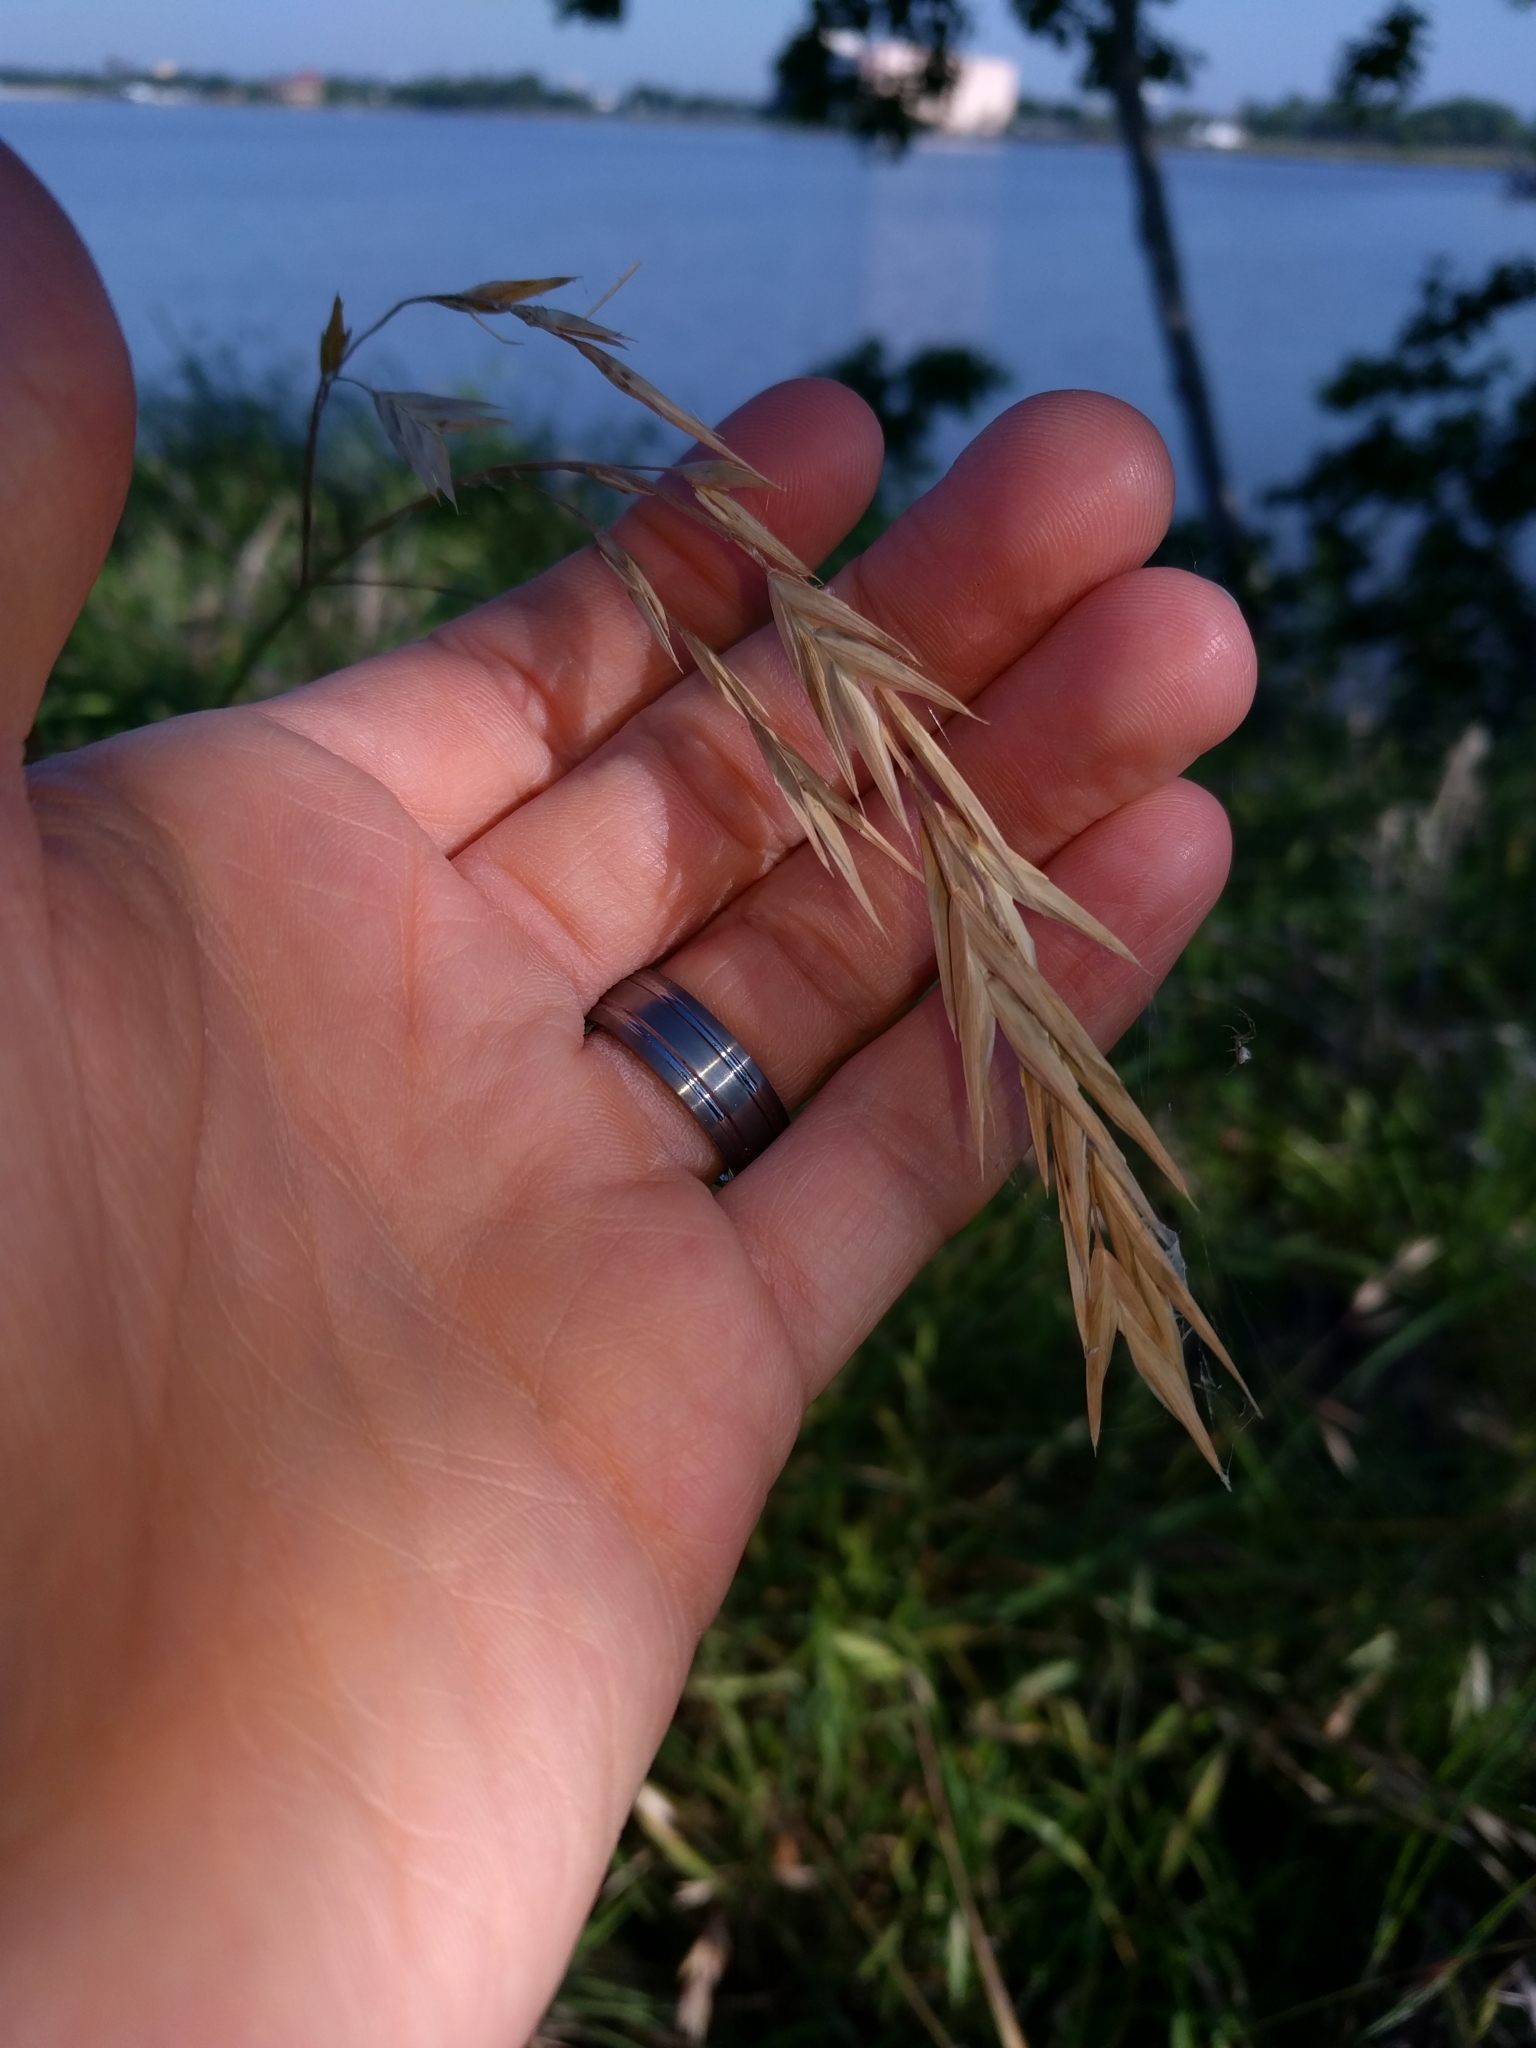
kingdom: Plantae
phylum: Tracheophyta
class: Liliopsida
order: Poales
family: Poaceae
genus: Chasmanthium
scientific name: Chasmanthium latifolium
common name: Broad-leaved chasmanthium
